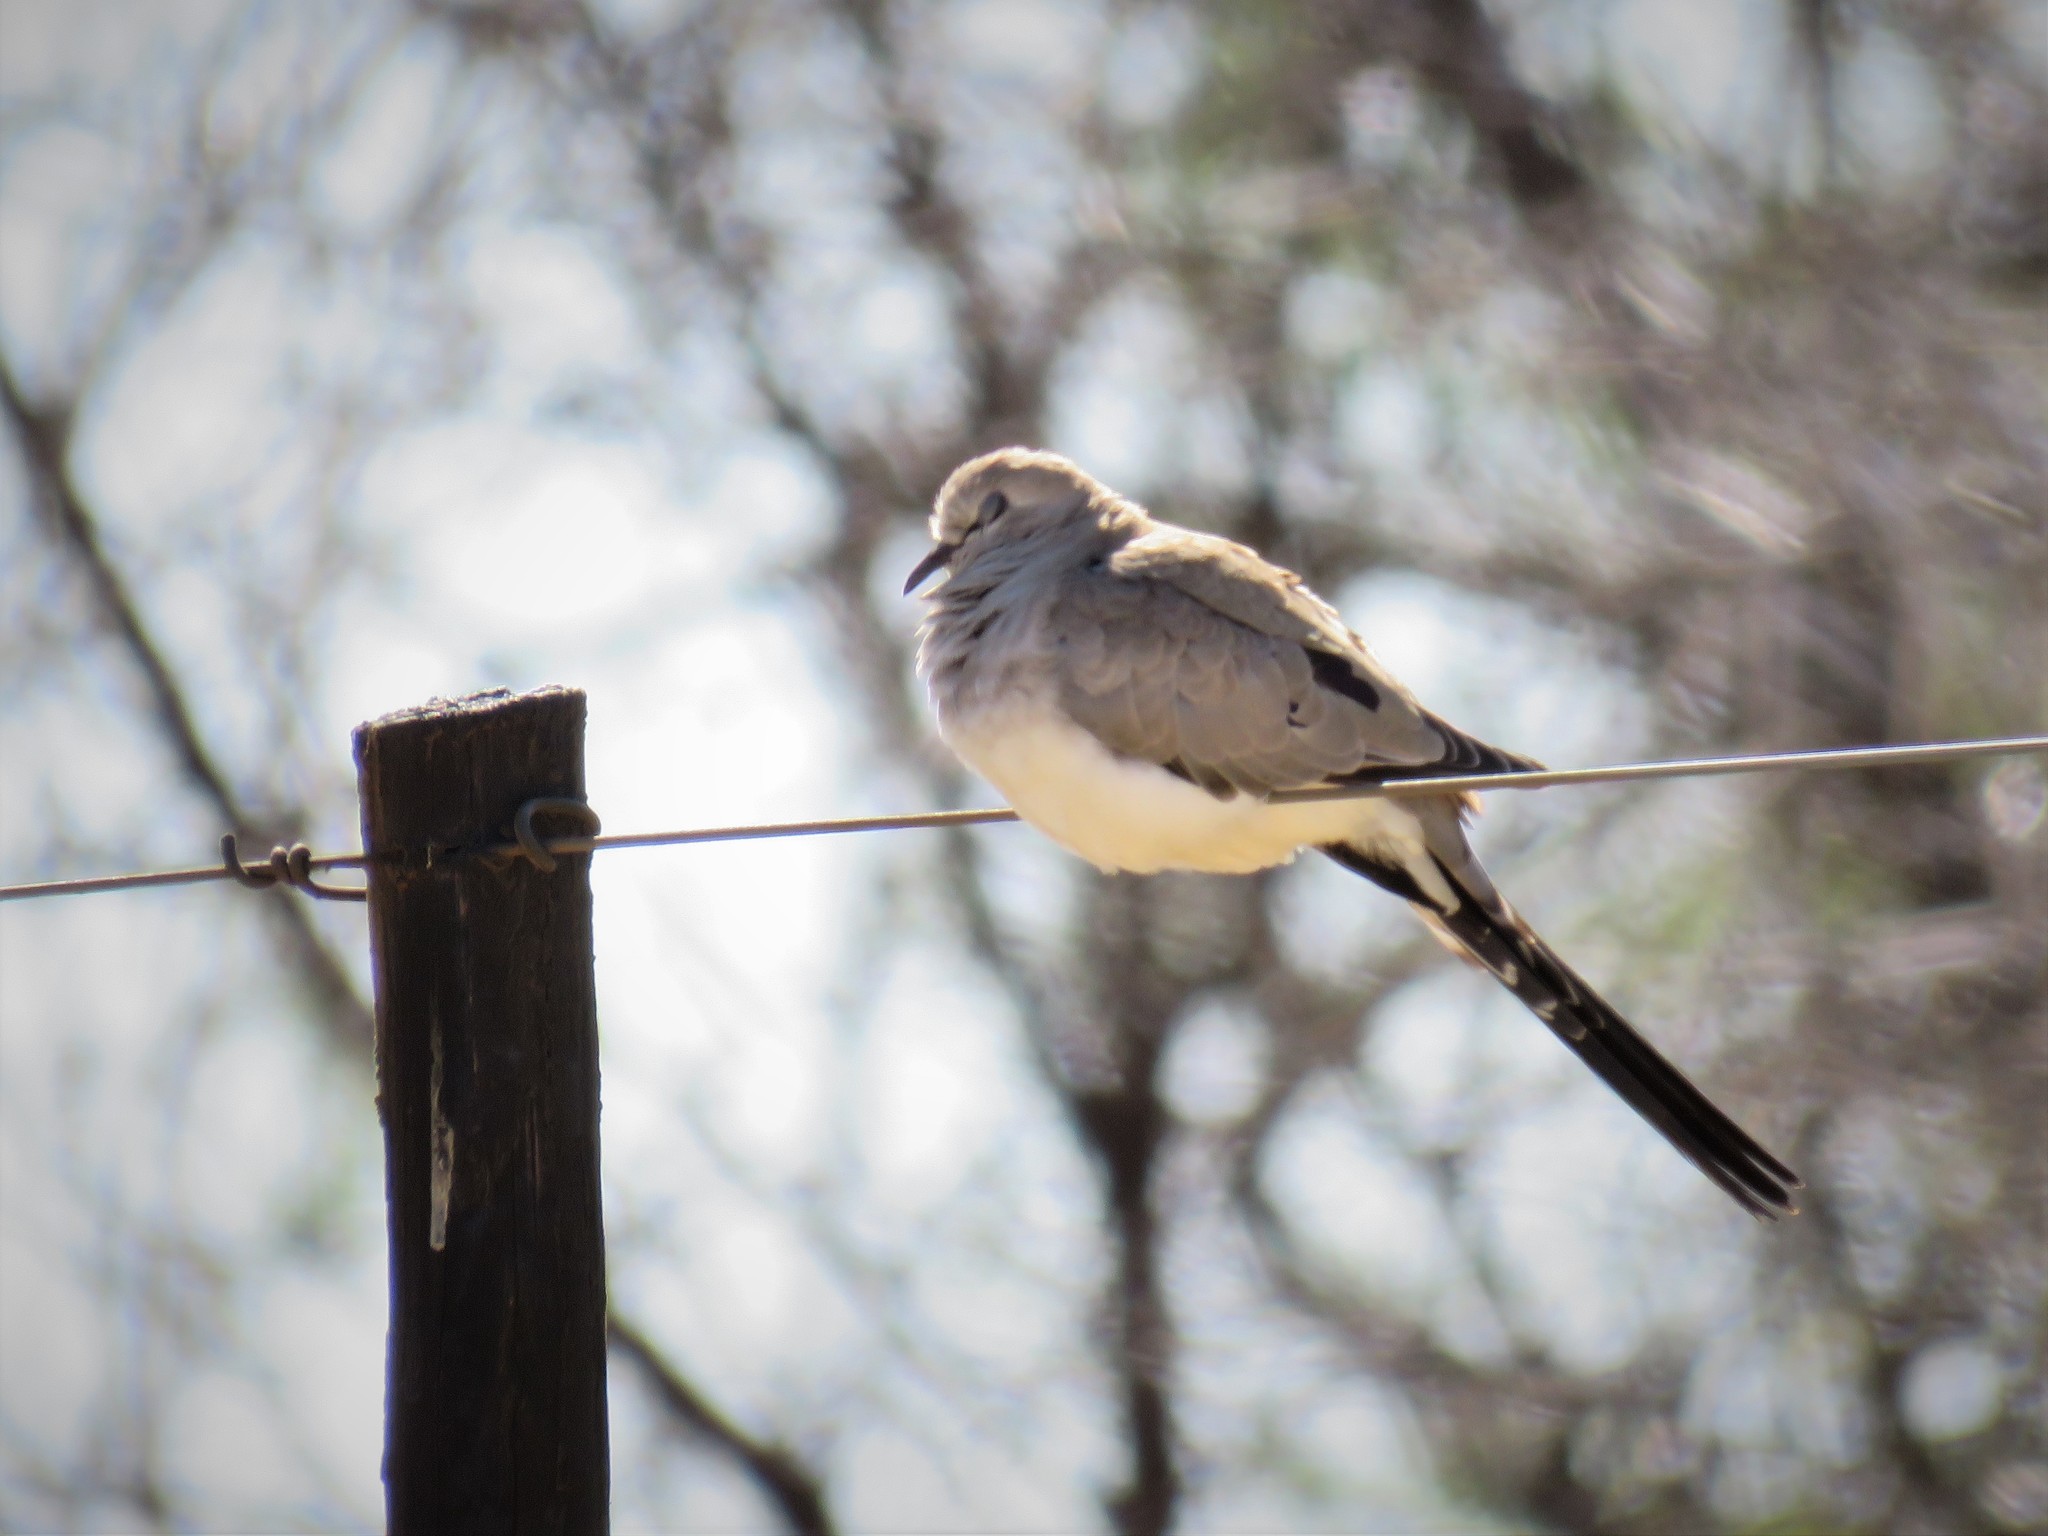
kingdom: Animalia
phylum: Chordata
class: Aves
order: Columbiformes
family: Columbidae
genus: Oena
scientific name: Oena capensis
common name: Namaqua dove
